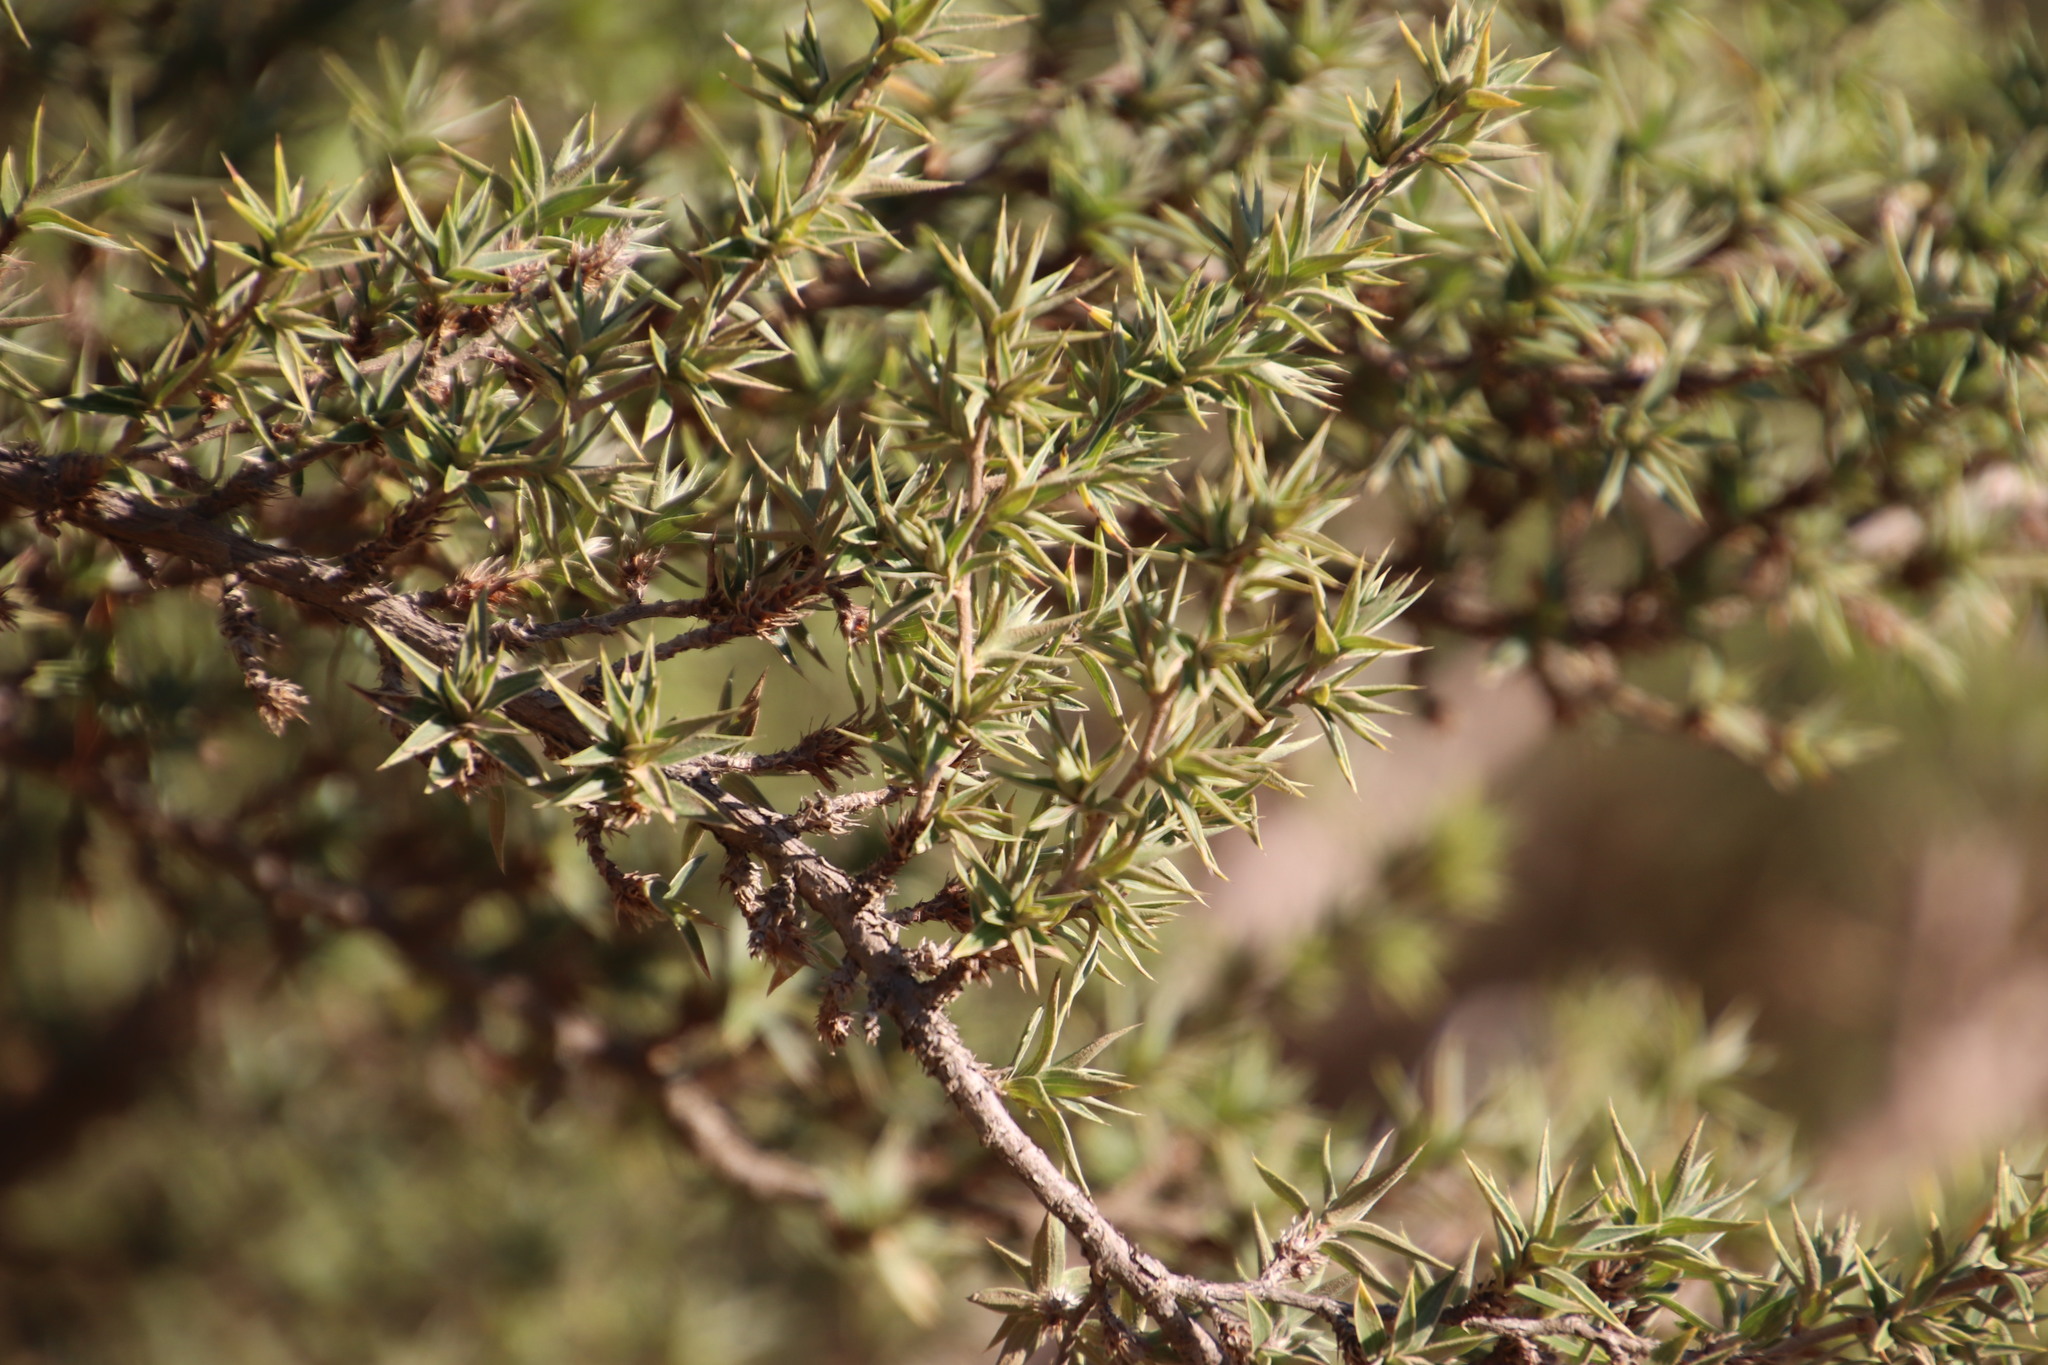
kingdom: Plantae
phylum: Tracheophyta
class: Magnoliopsida
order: Rosales
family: Rosaceae
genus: Cliffortia
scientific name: Cliffortia ruscifolia
